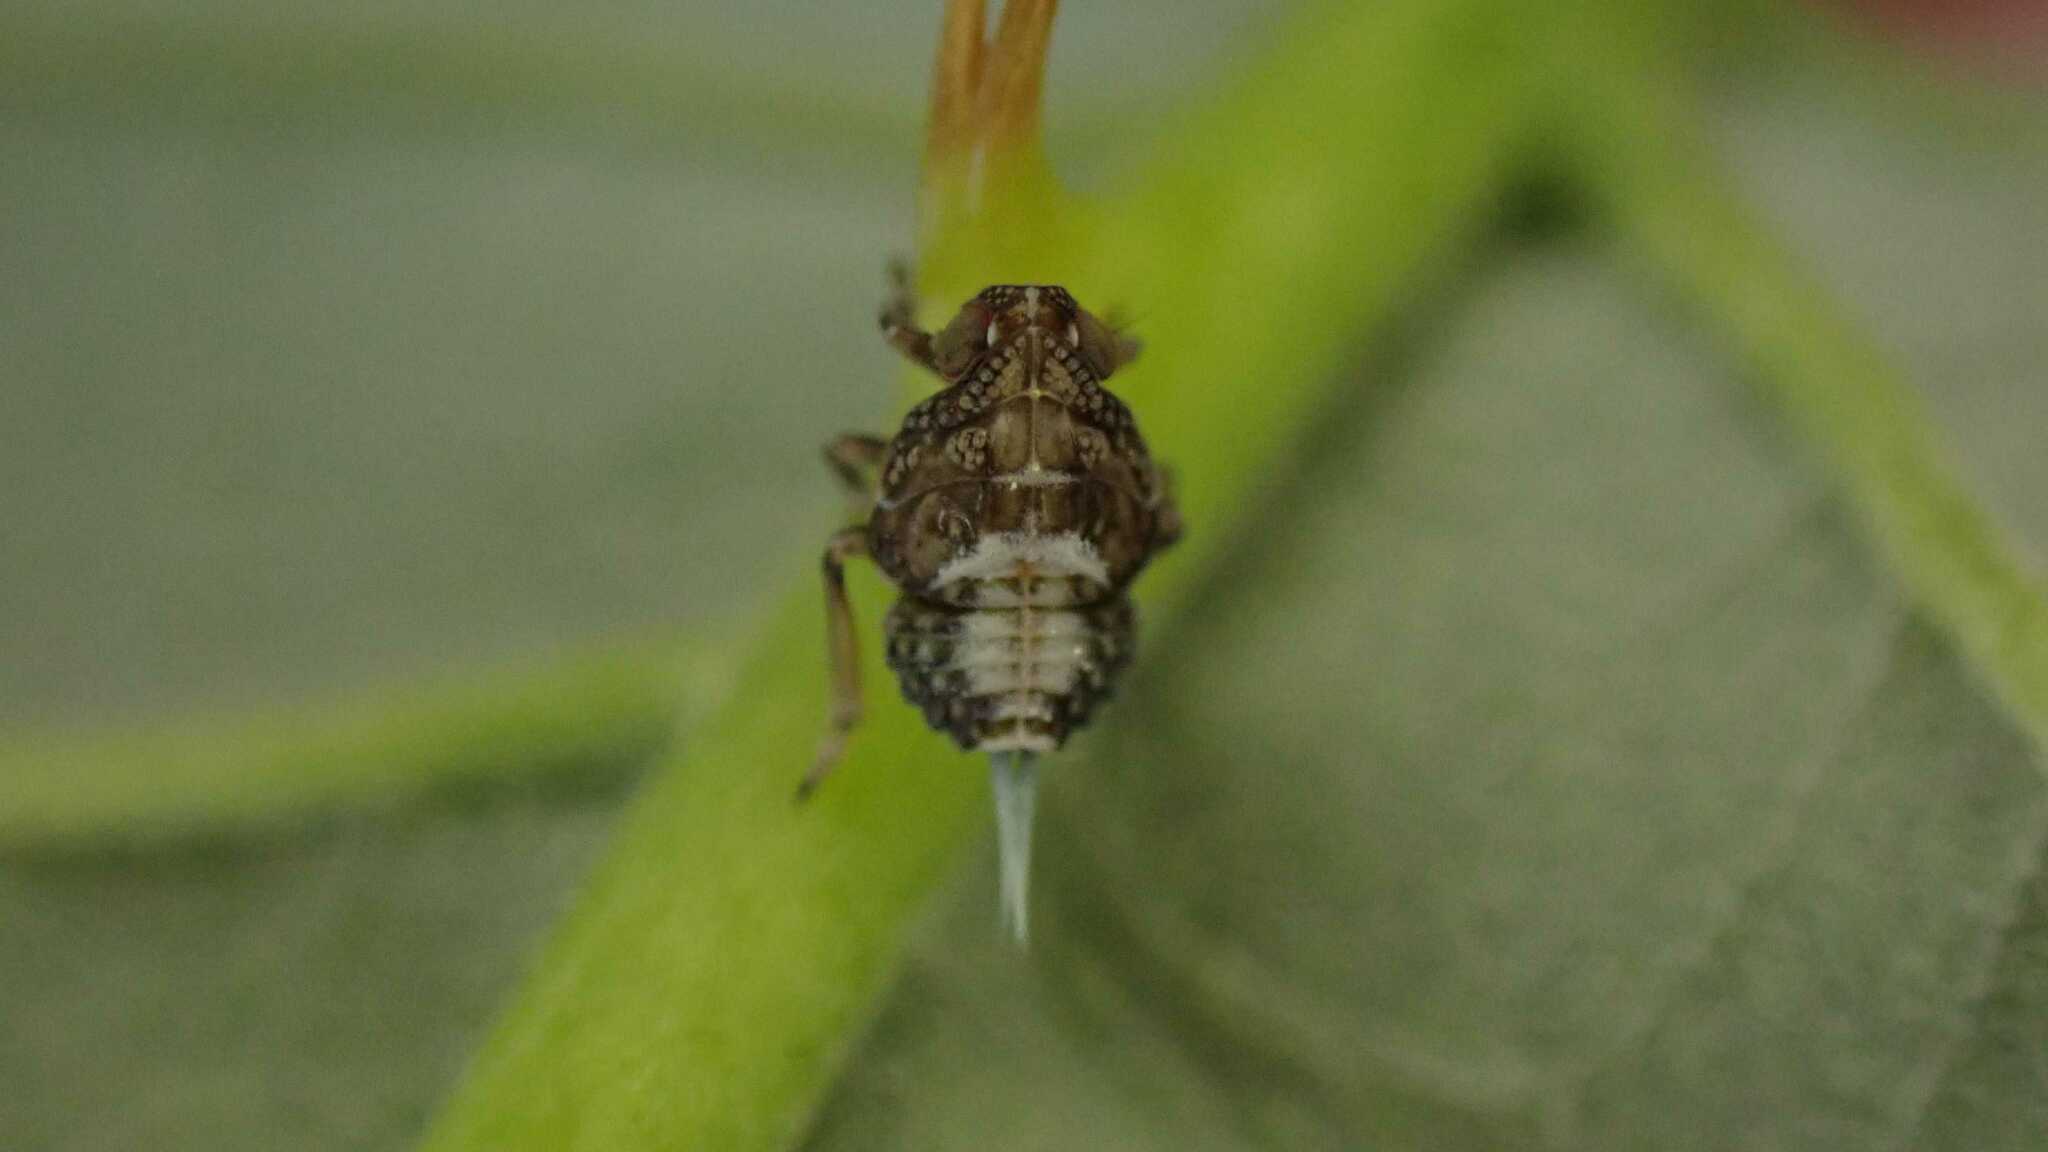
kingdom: Animalia
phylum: Arthropoda
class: Insecta
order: Hemiptera
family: Issidae
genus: Issus
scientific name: Issus coleoptratus
